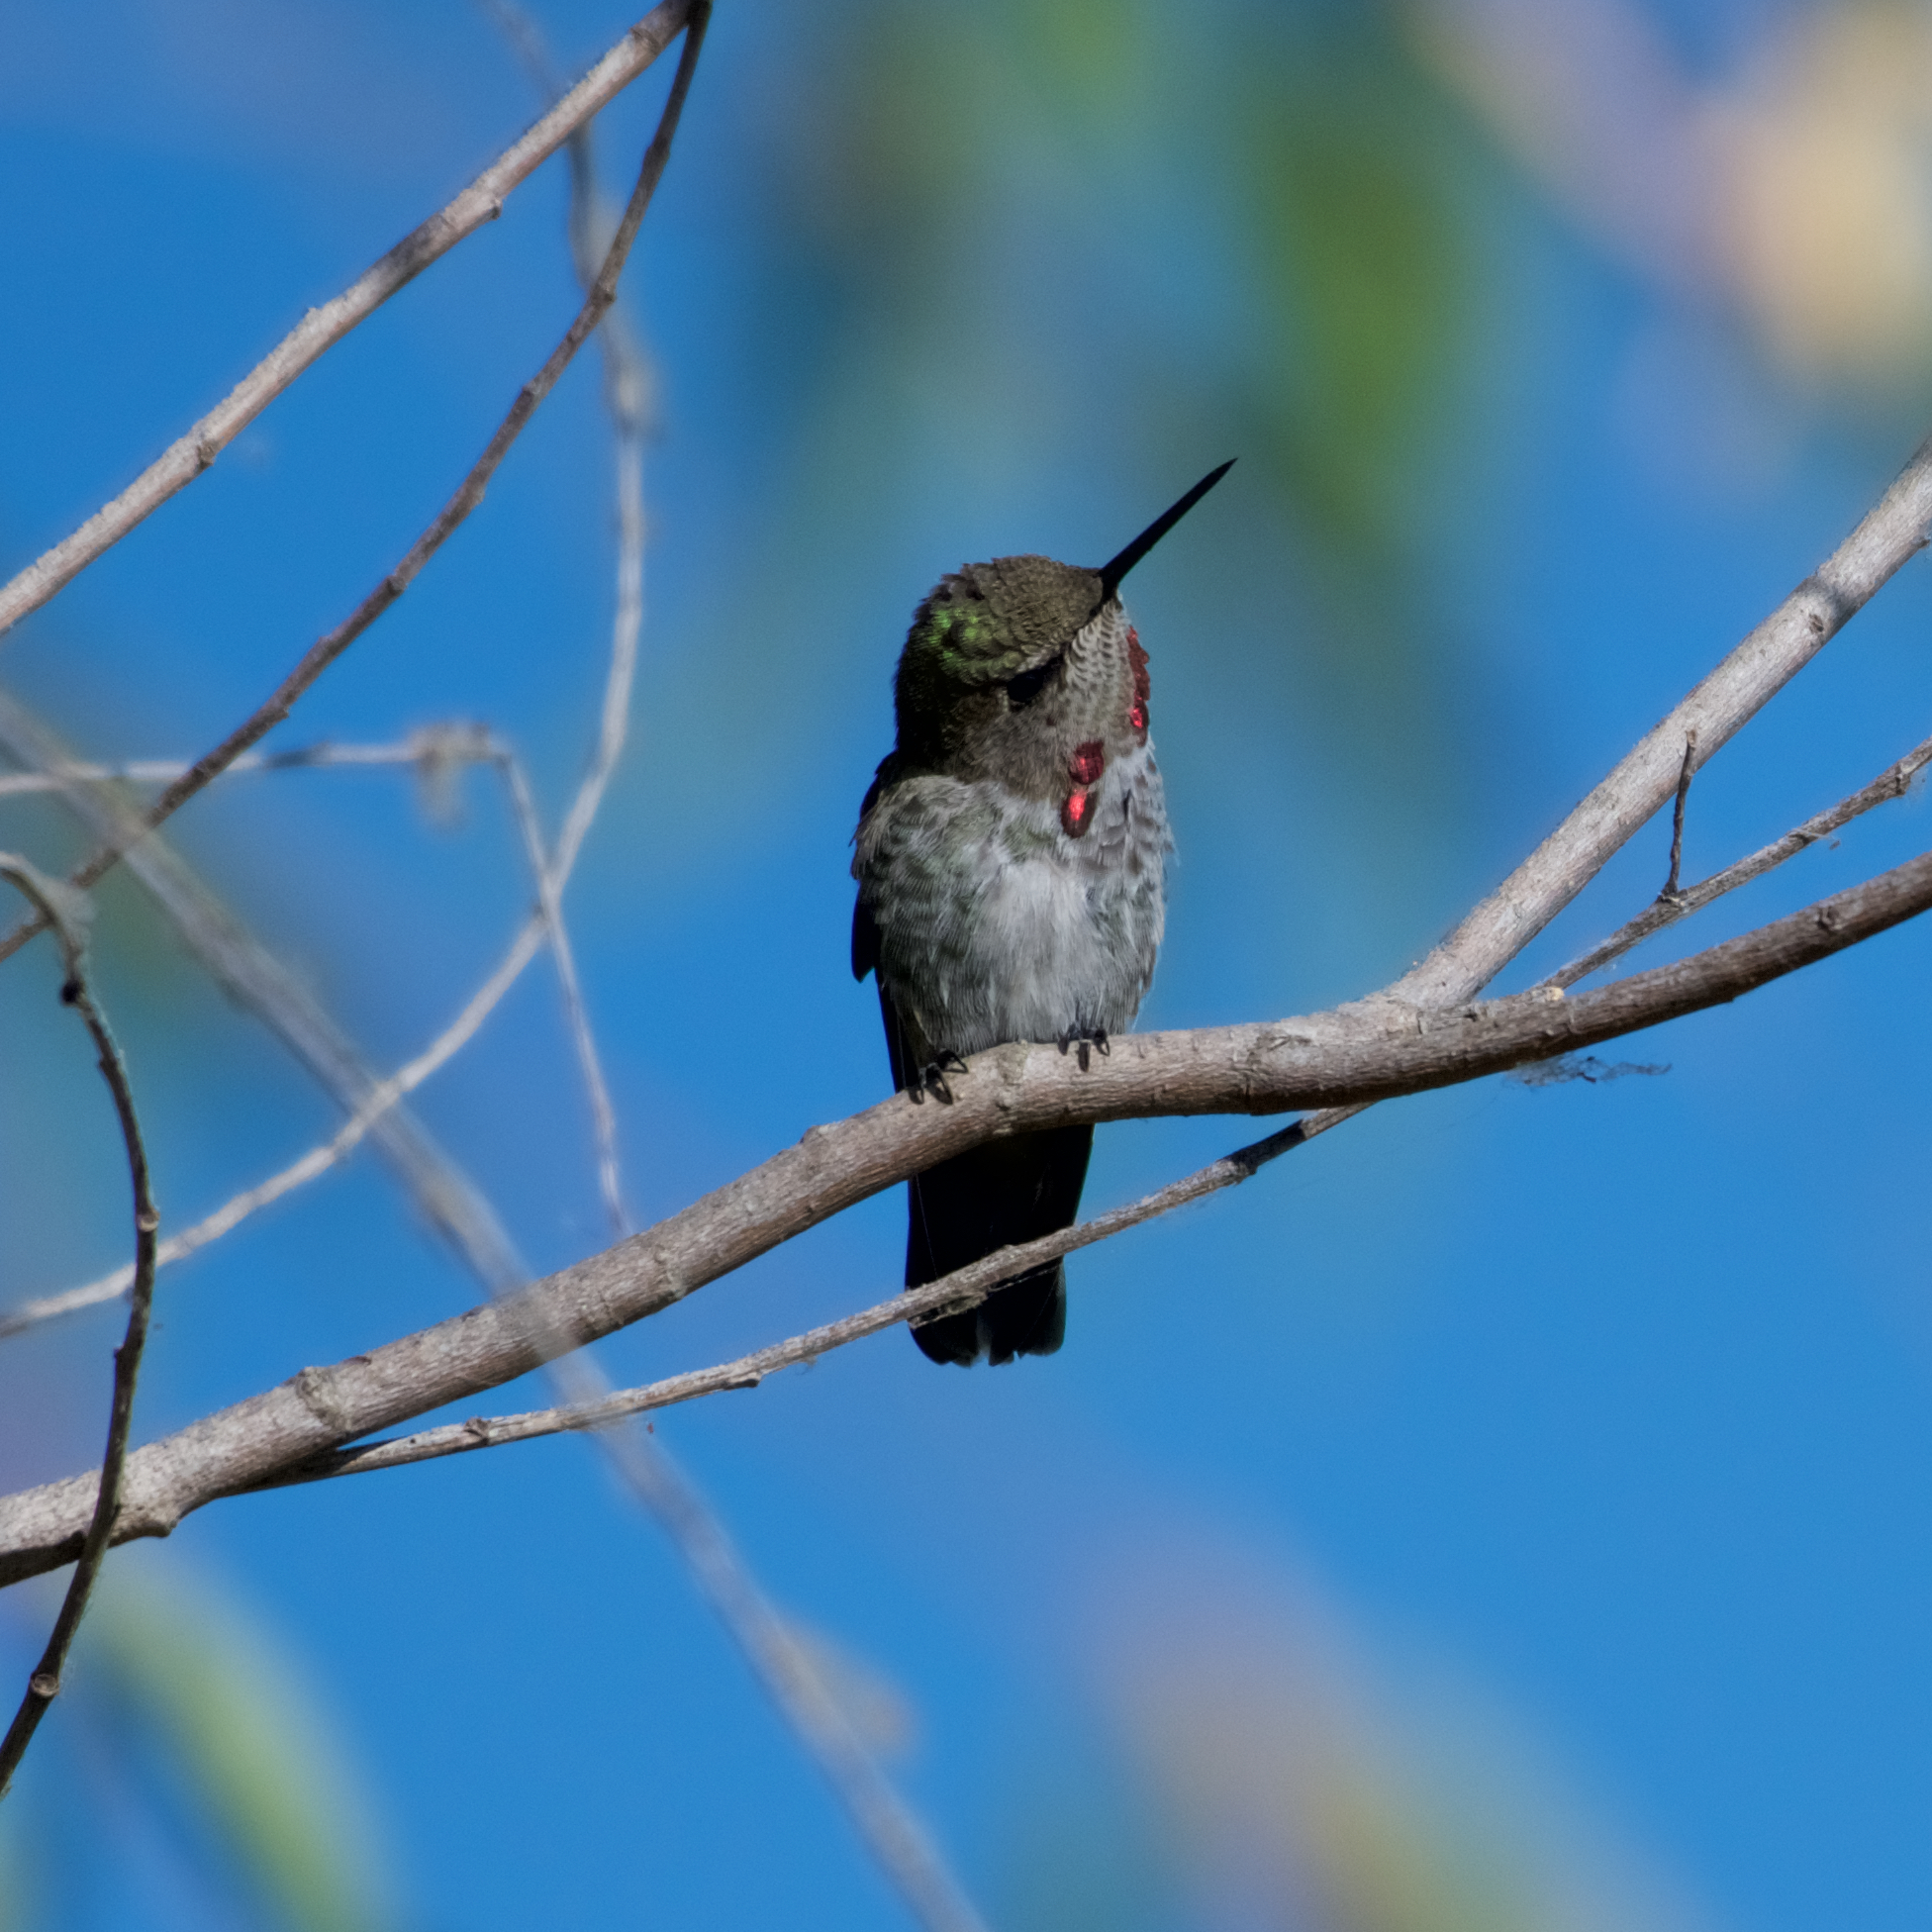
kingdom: Animalia
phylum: Chordata
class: Aves
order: Apodiformes
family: Trochilidae
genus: Calypte
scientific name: Calypte anna
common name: Anna's hummingbird
